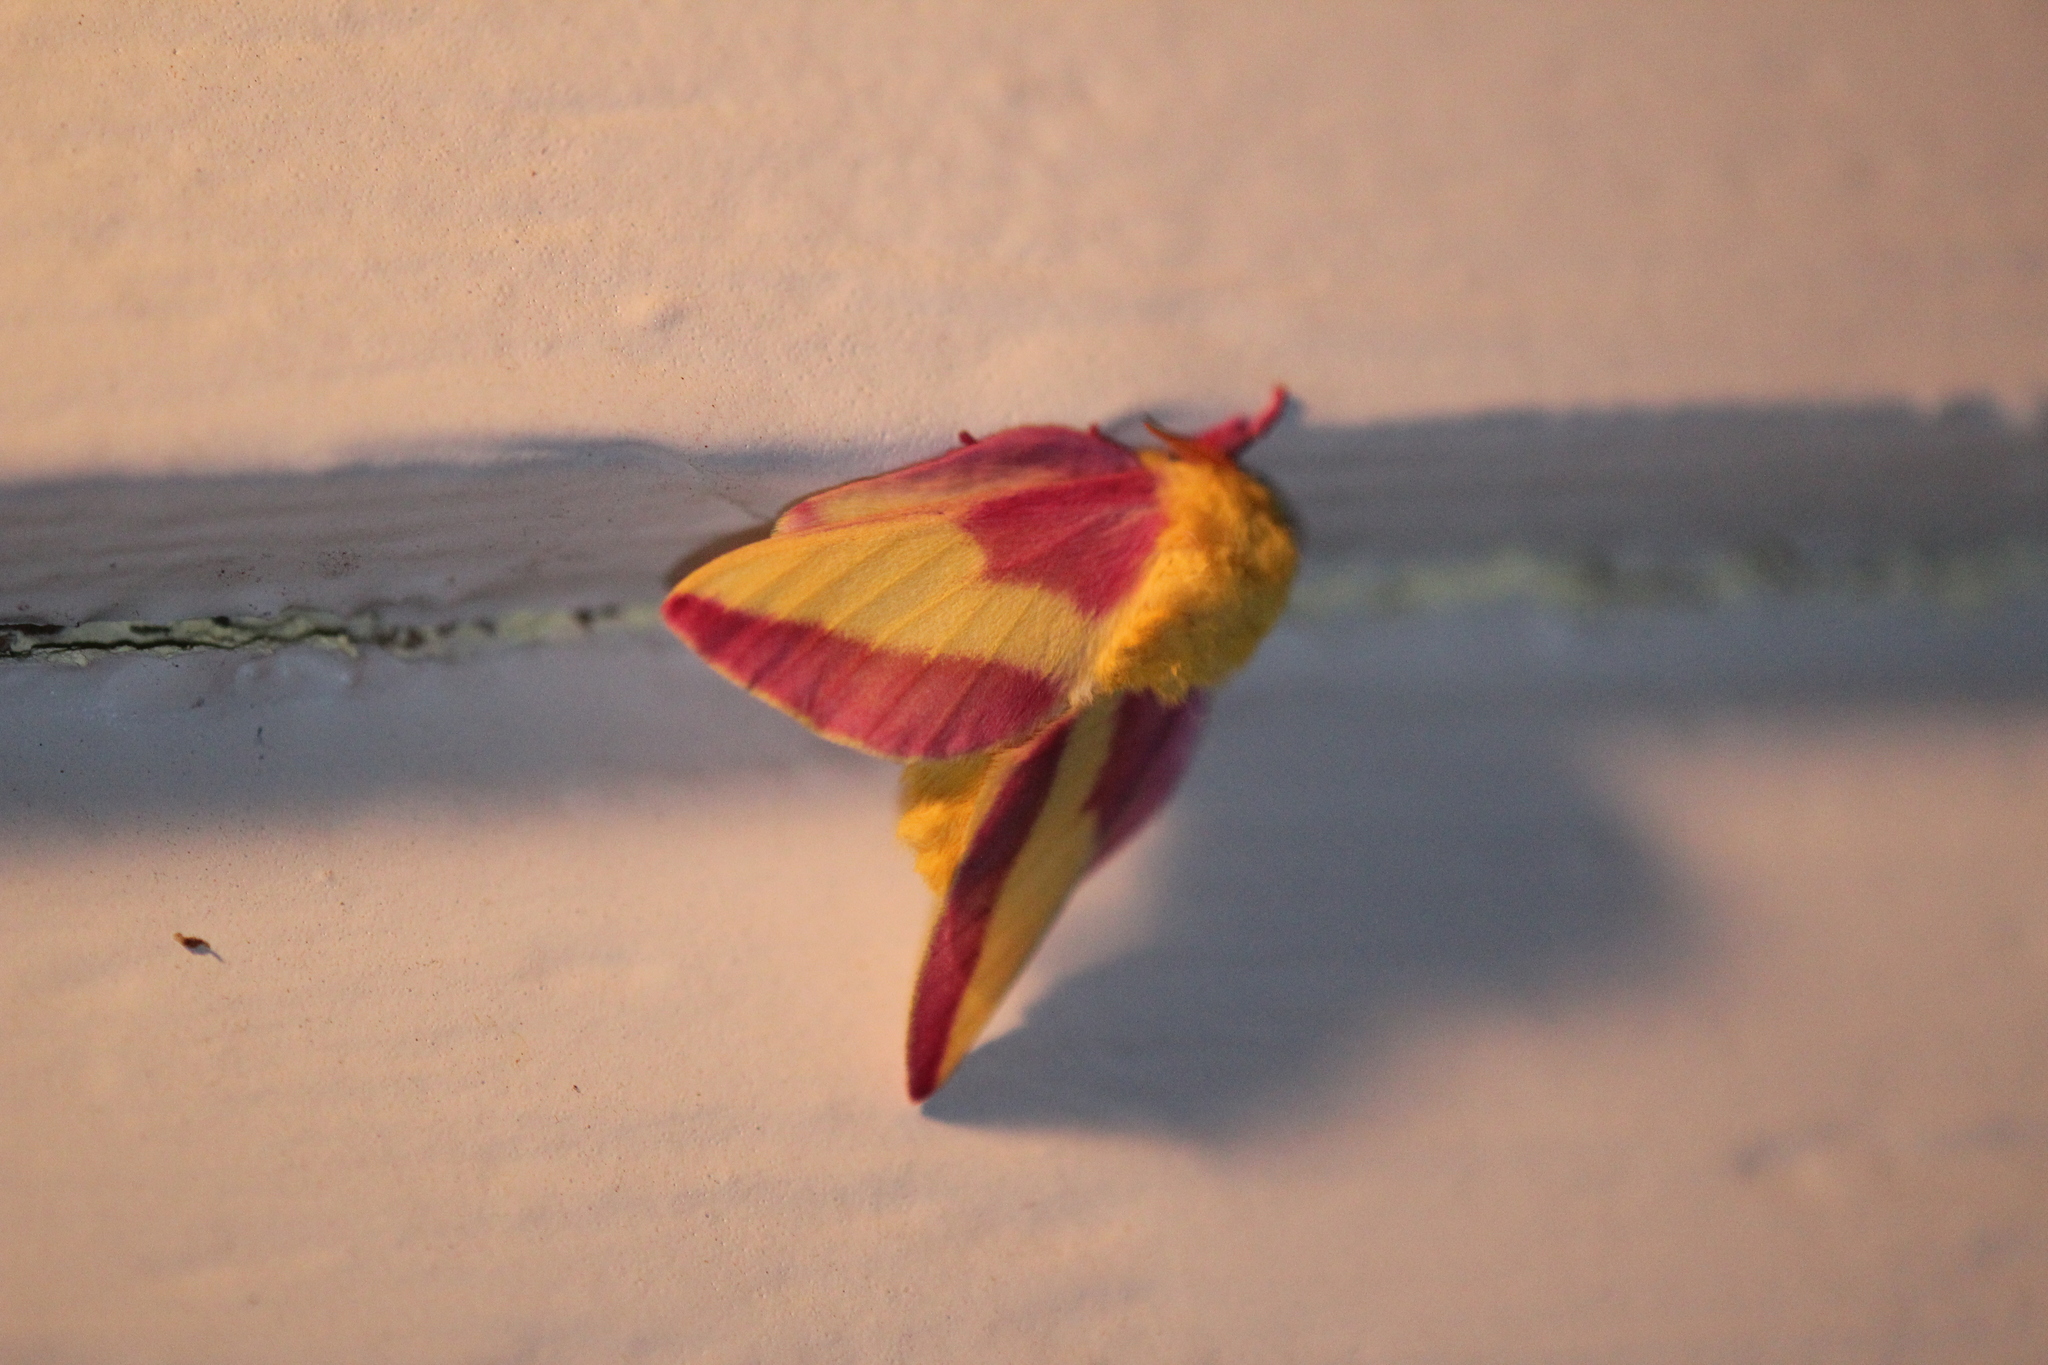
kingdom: Animalia
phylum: Arthropoda
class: Insecta
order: Lepidoptera
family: Saturniidae
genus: Dryocampa
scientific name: Dryocampa rubicunda
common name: Rosy maple moth
